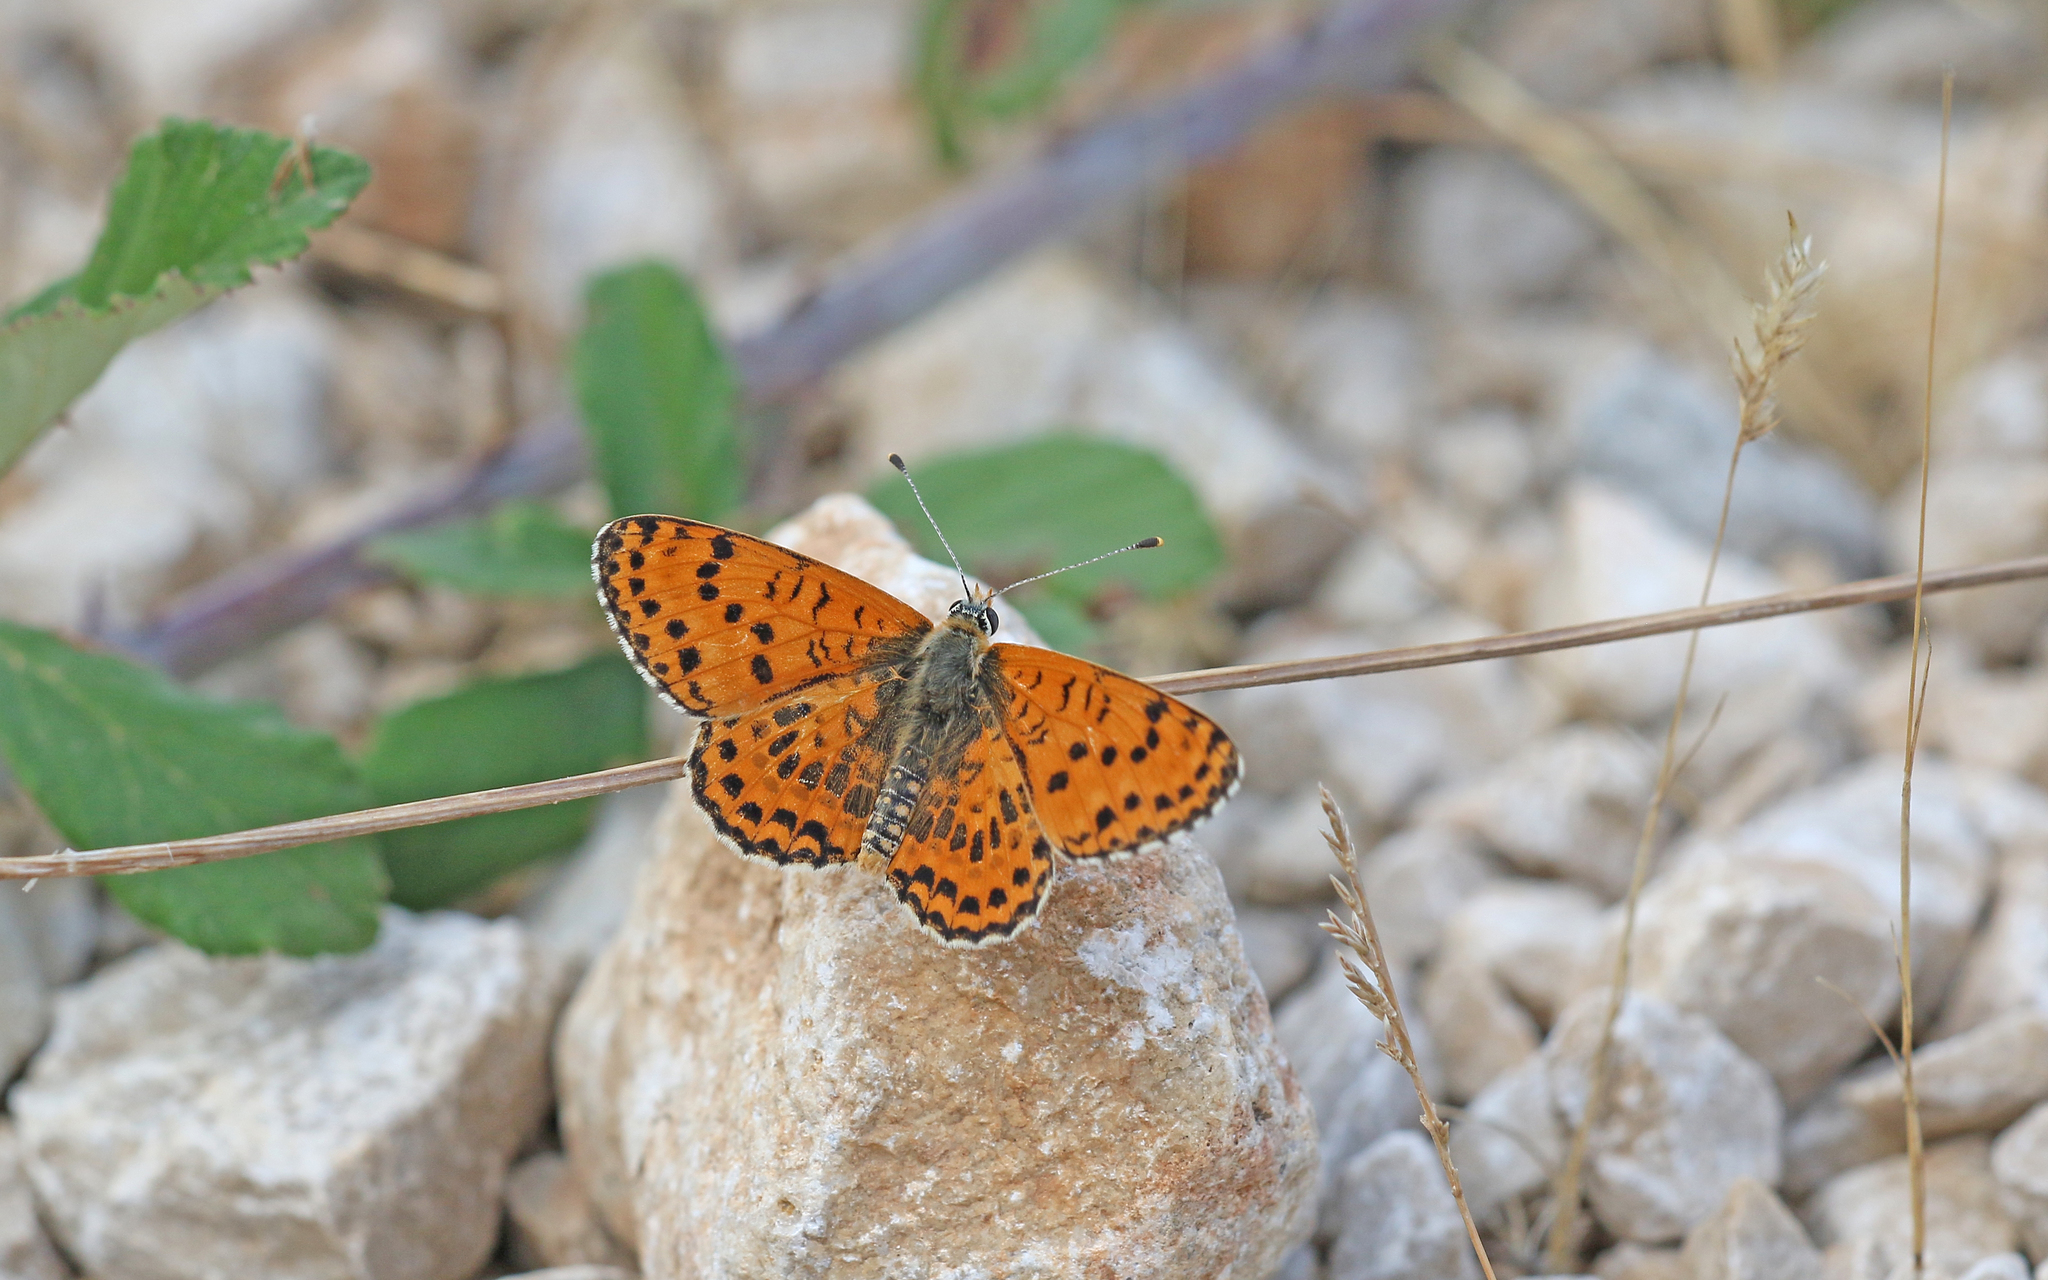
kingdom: Animalia
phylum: Arthropoda
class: Insecta
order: Lepidoptera
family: Nymphalidae
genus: Melitaea
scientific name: Melitaea didyma
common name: Spotted fritillary
